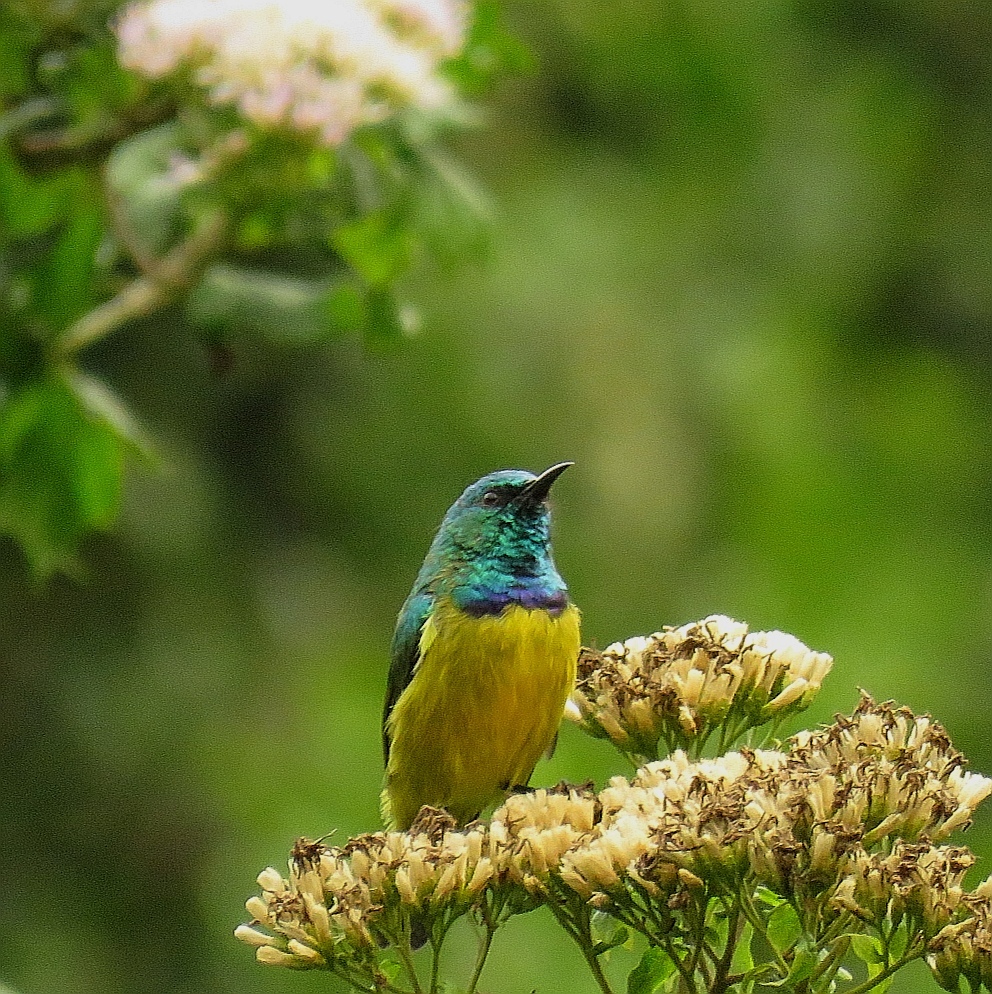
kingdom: Animalia
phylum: Chordata
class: Aves
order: Passeriformes
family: Nectariniidae
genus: Hedydipna
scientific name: Hedydipna collaris
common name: Collared sunbird
